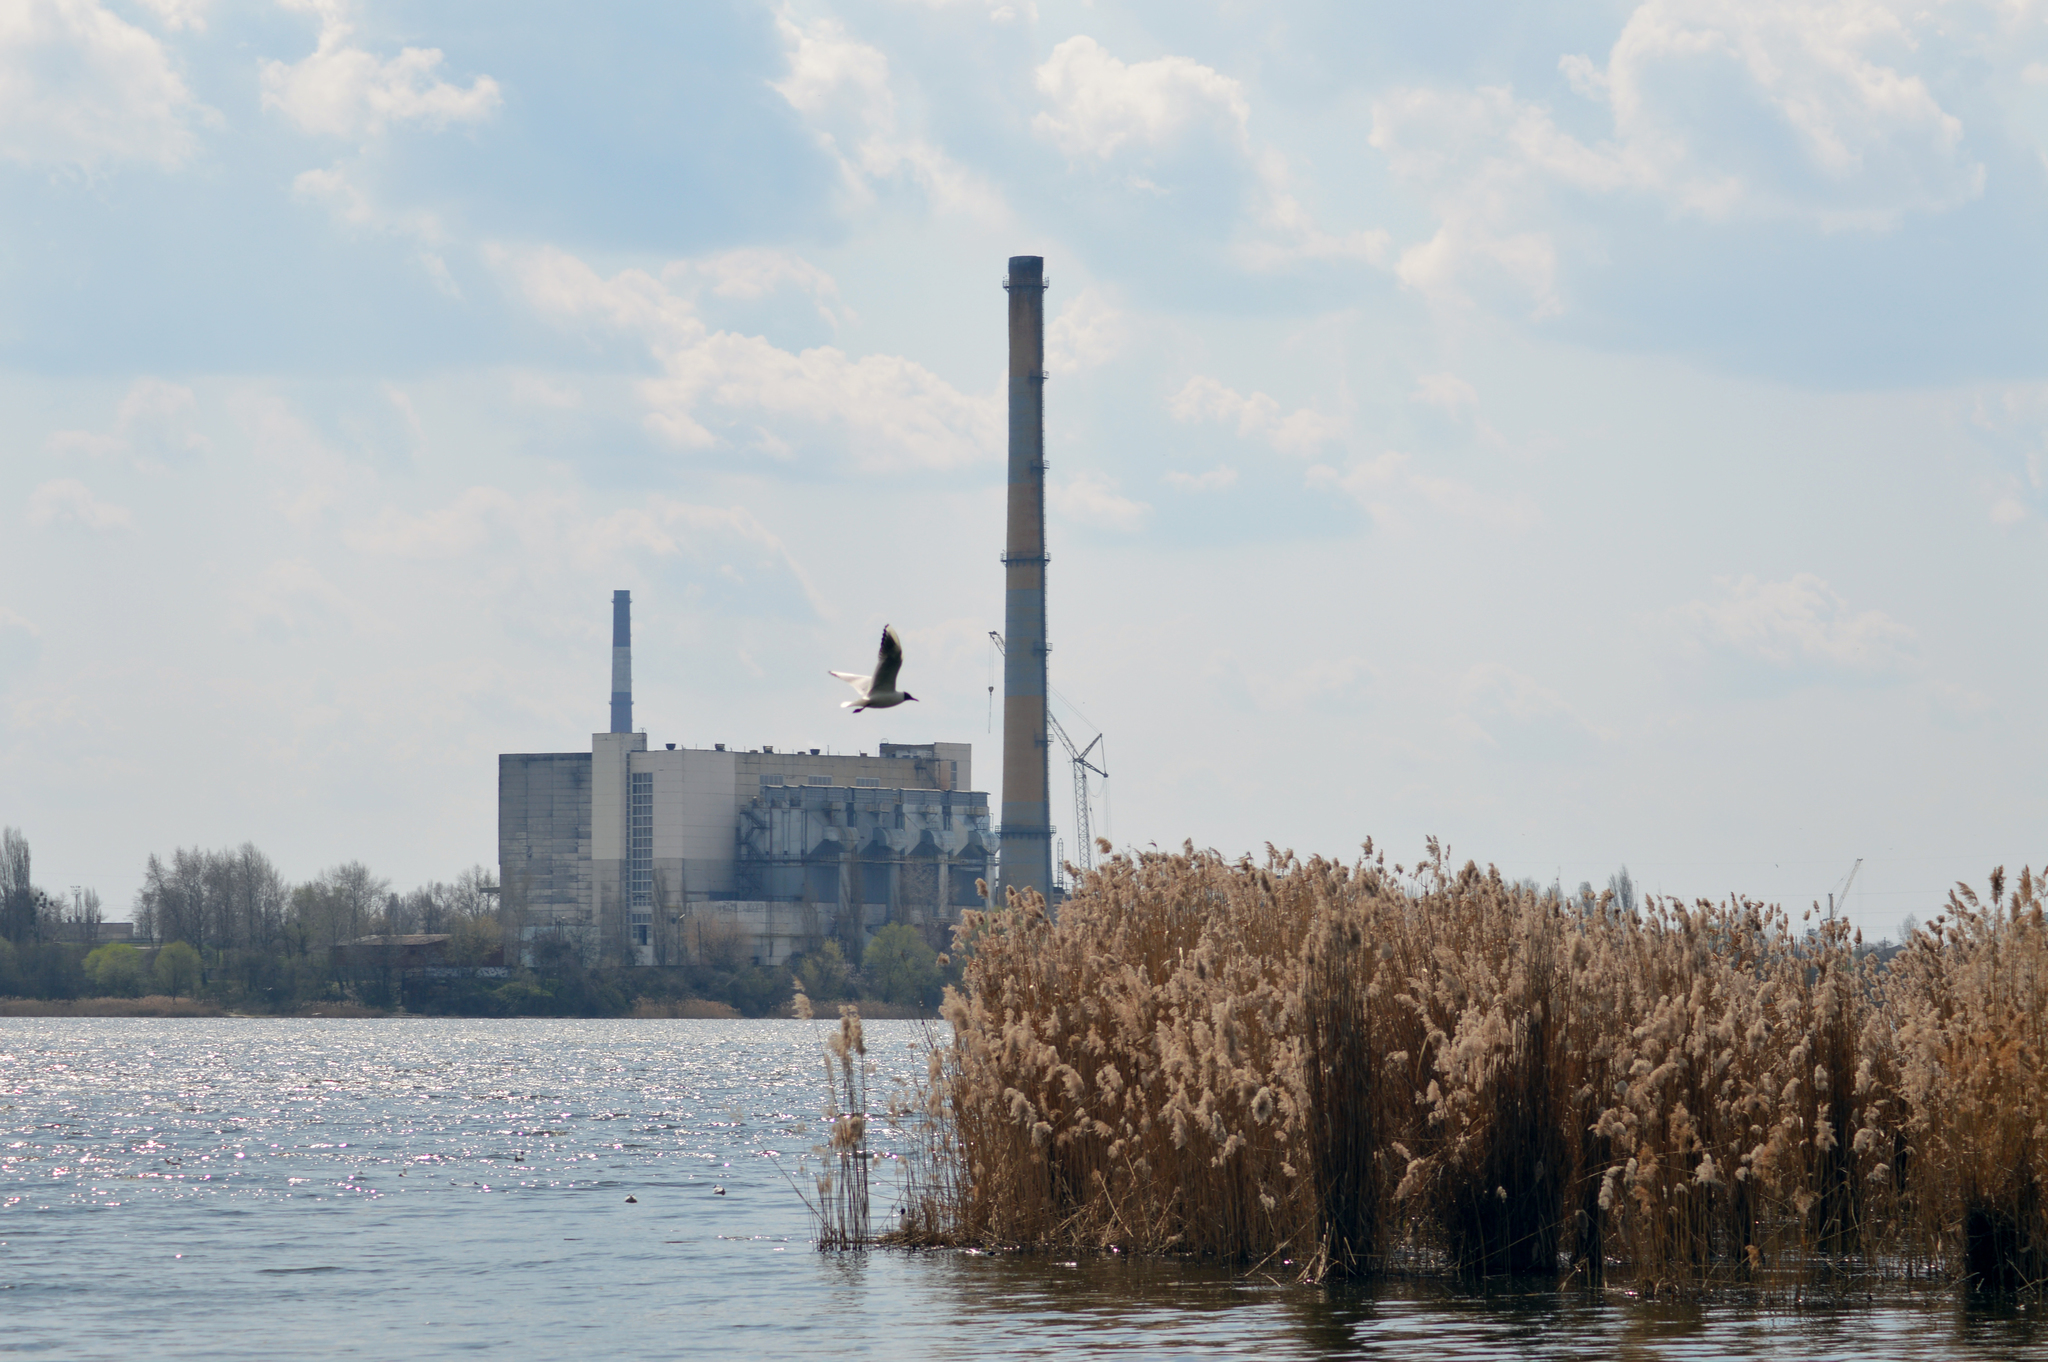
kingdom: Animalia
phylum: Chordata
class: Aves
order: Charadriiformes
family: Laridae
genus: Chroicocephalus
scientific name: Chroicocephalus ridibundus
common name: Black-headed gull
